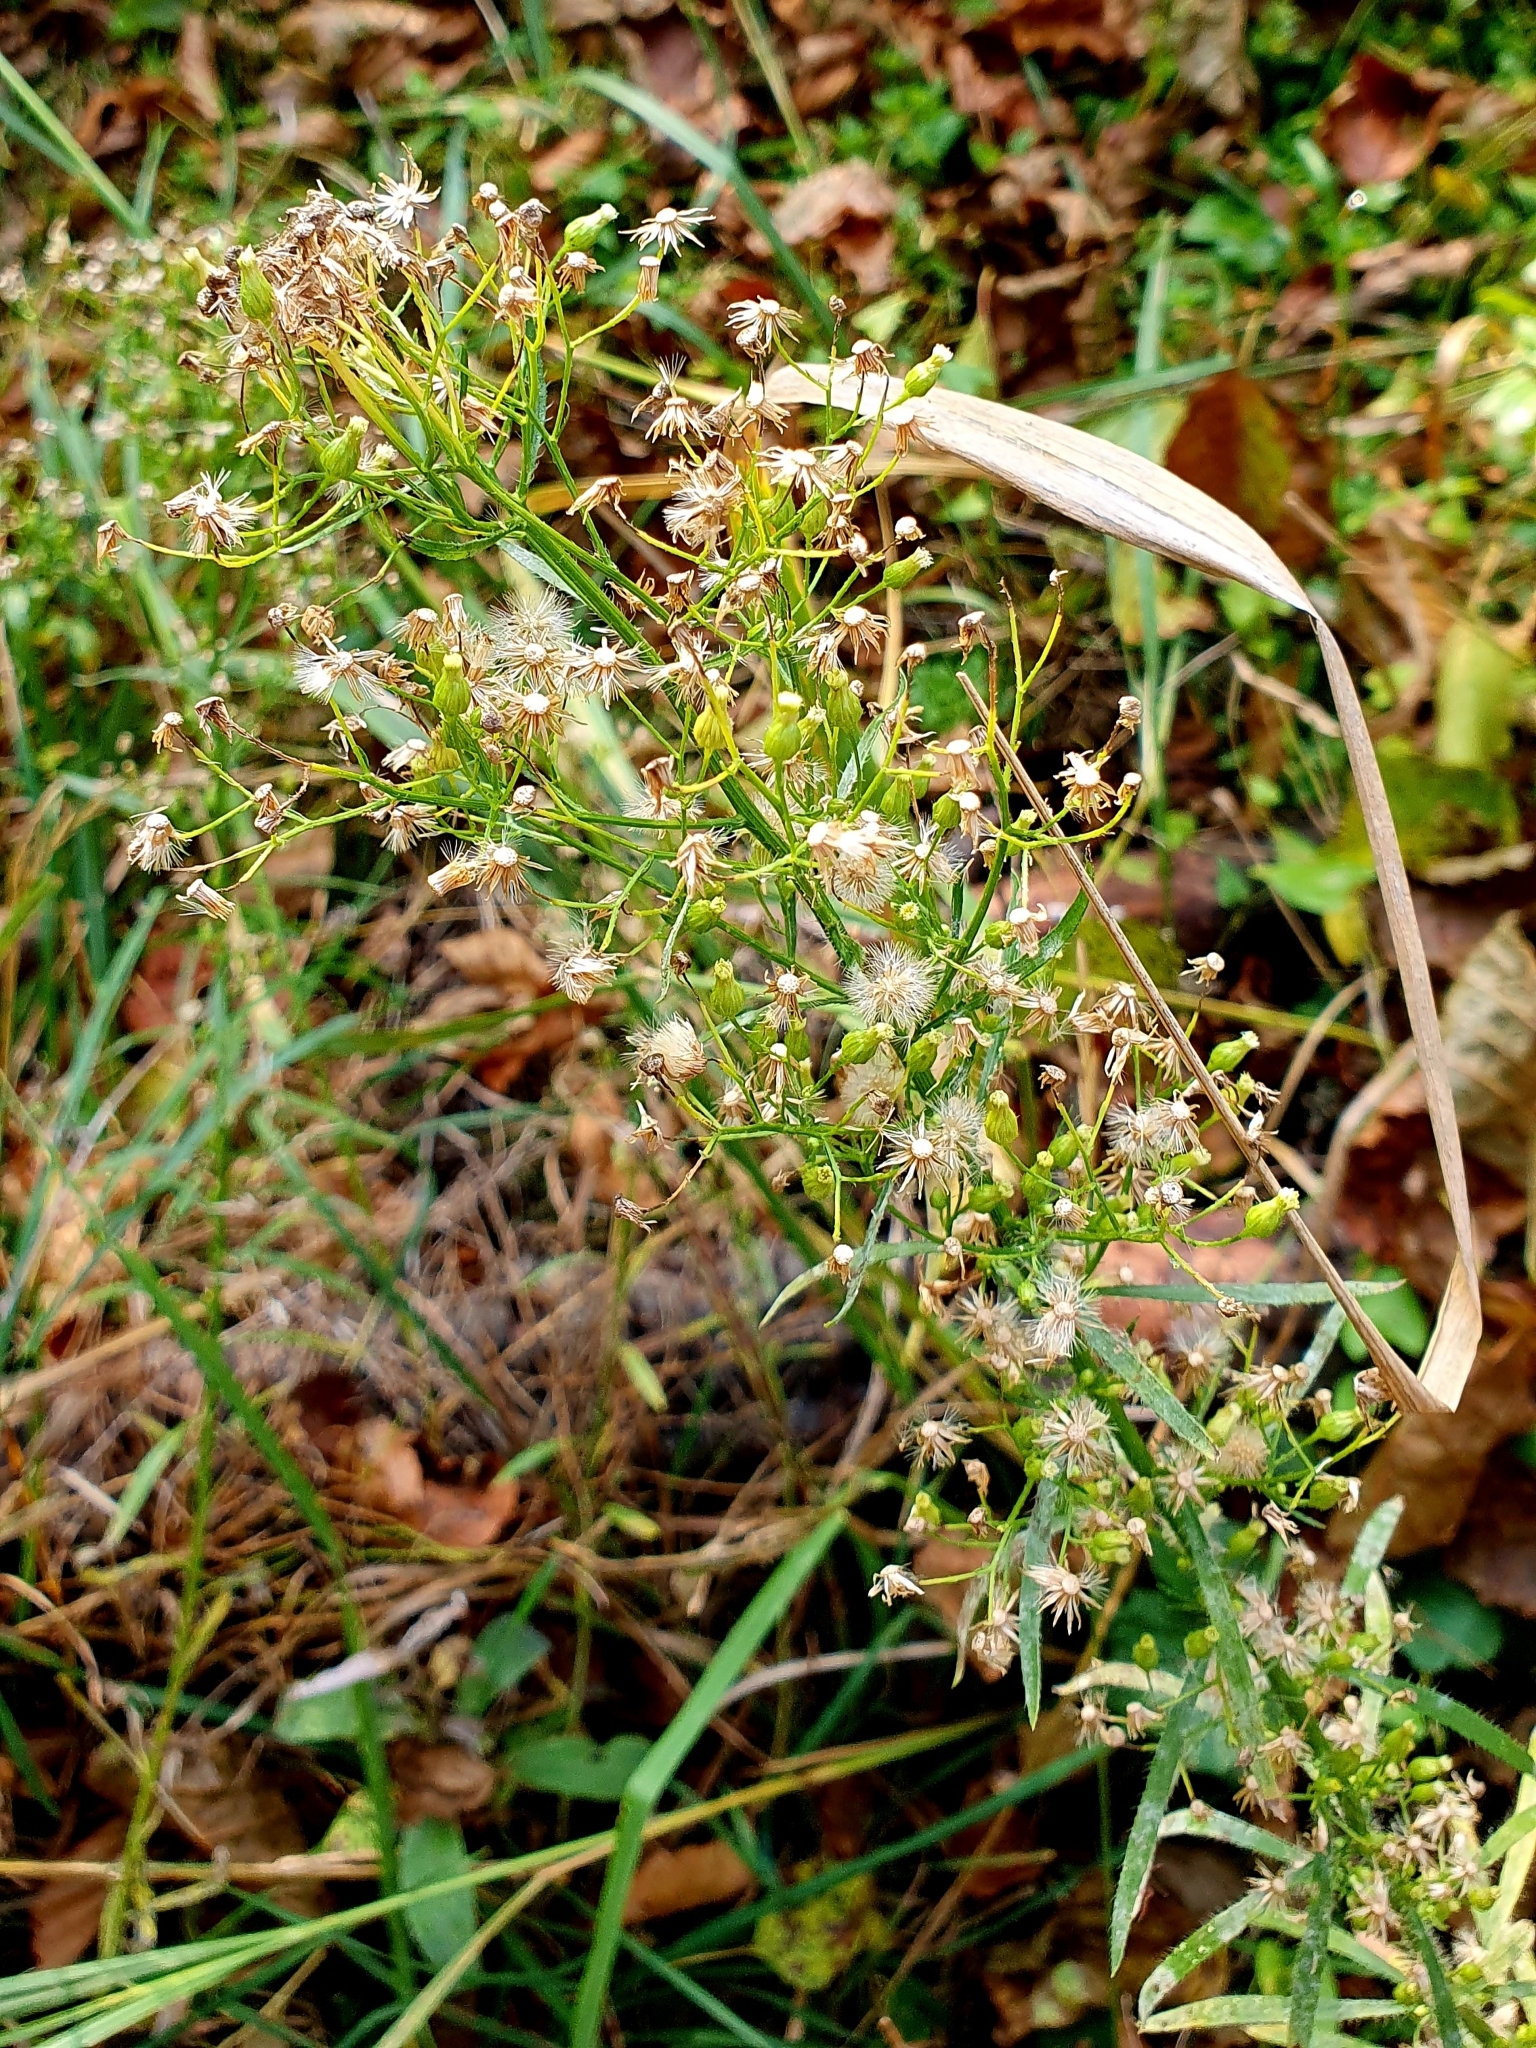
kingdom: Plantae
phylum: Tracheophyta
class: Magnoliopsida
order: Asterales
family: Asteraceae
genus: Erigeron
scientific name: Erigeron canadensis
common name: Canadian fleabane
